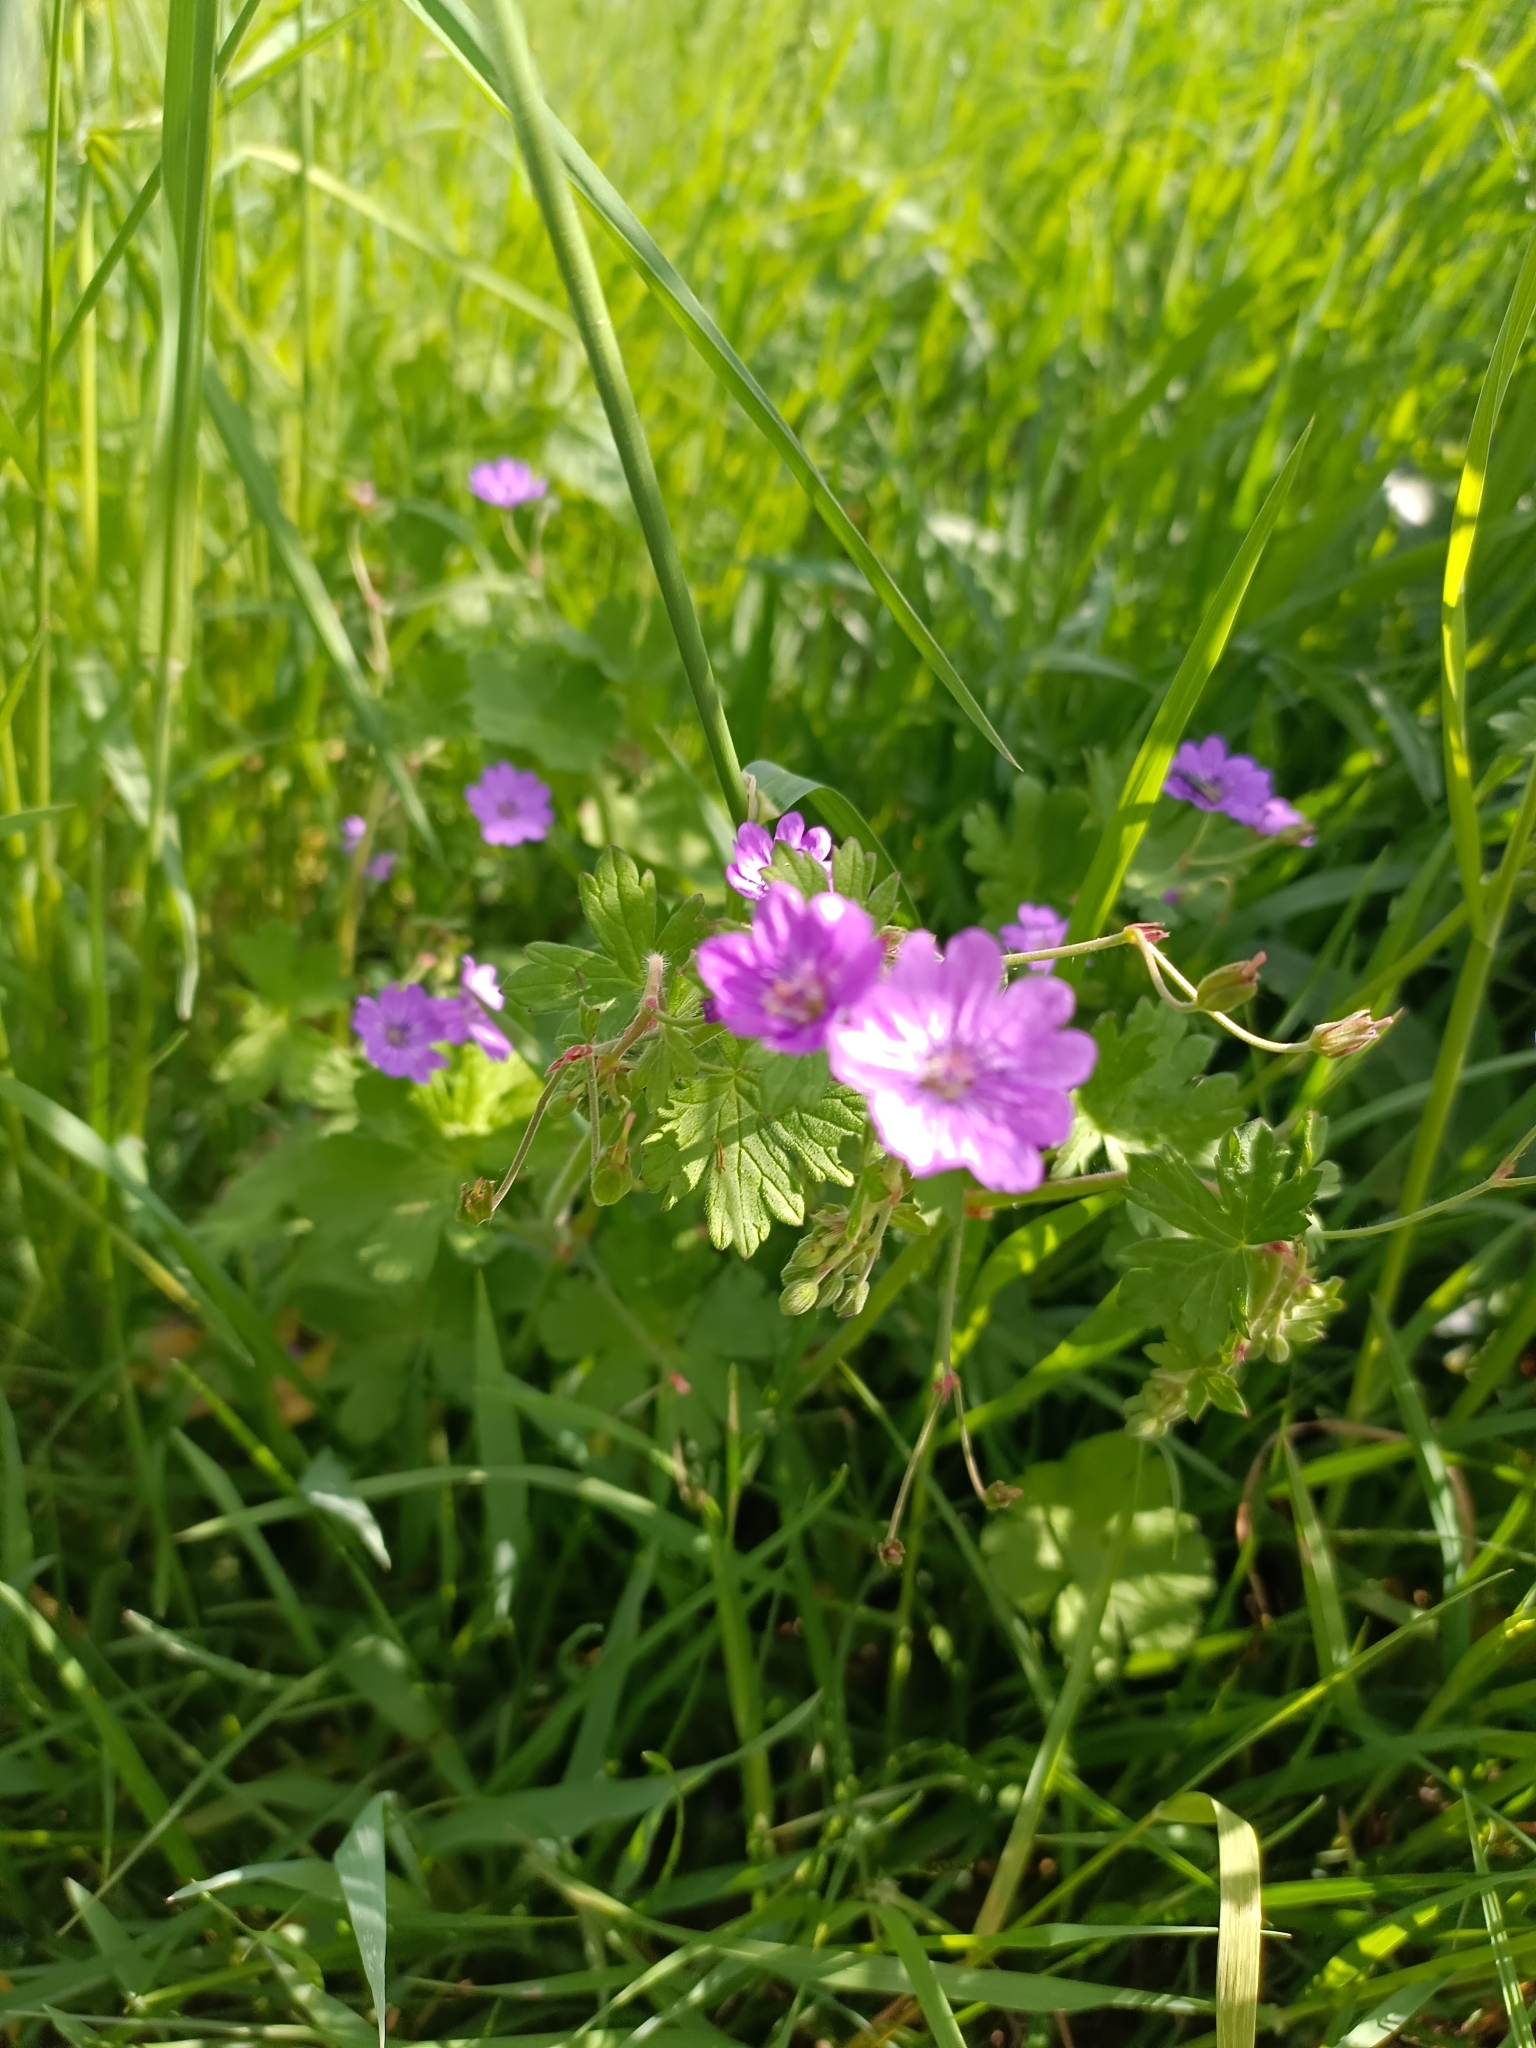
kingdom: Plantae
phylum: Tracheophyta
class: Magnoliopsida
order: Geraniales
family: Geraniaceae
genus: Geranium
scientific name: Geranium pyrenaicum
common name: Hedgerow crane's-bill
